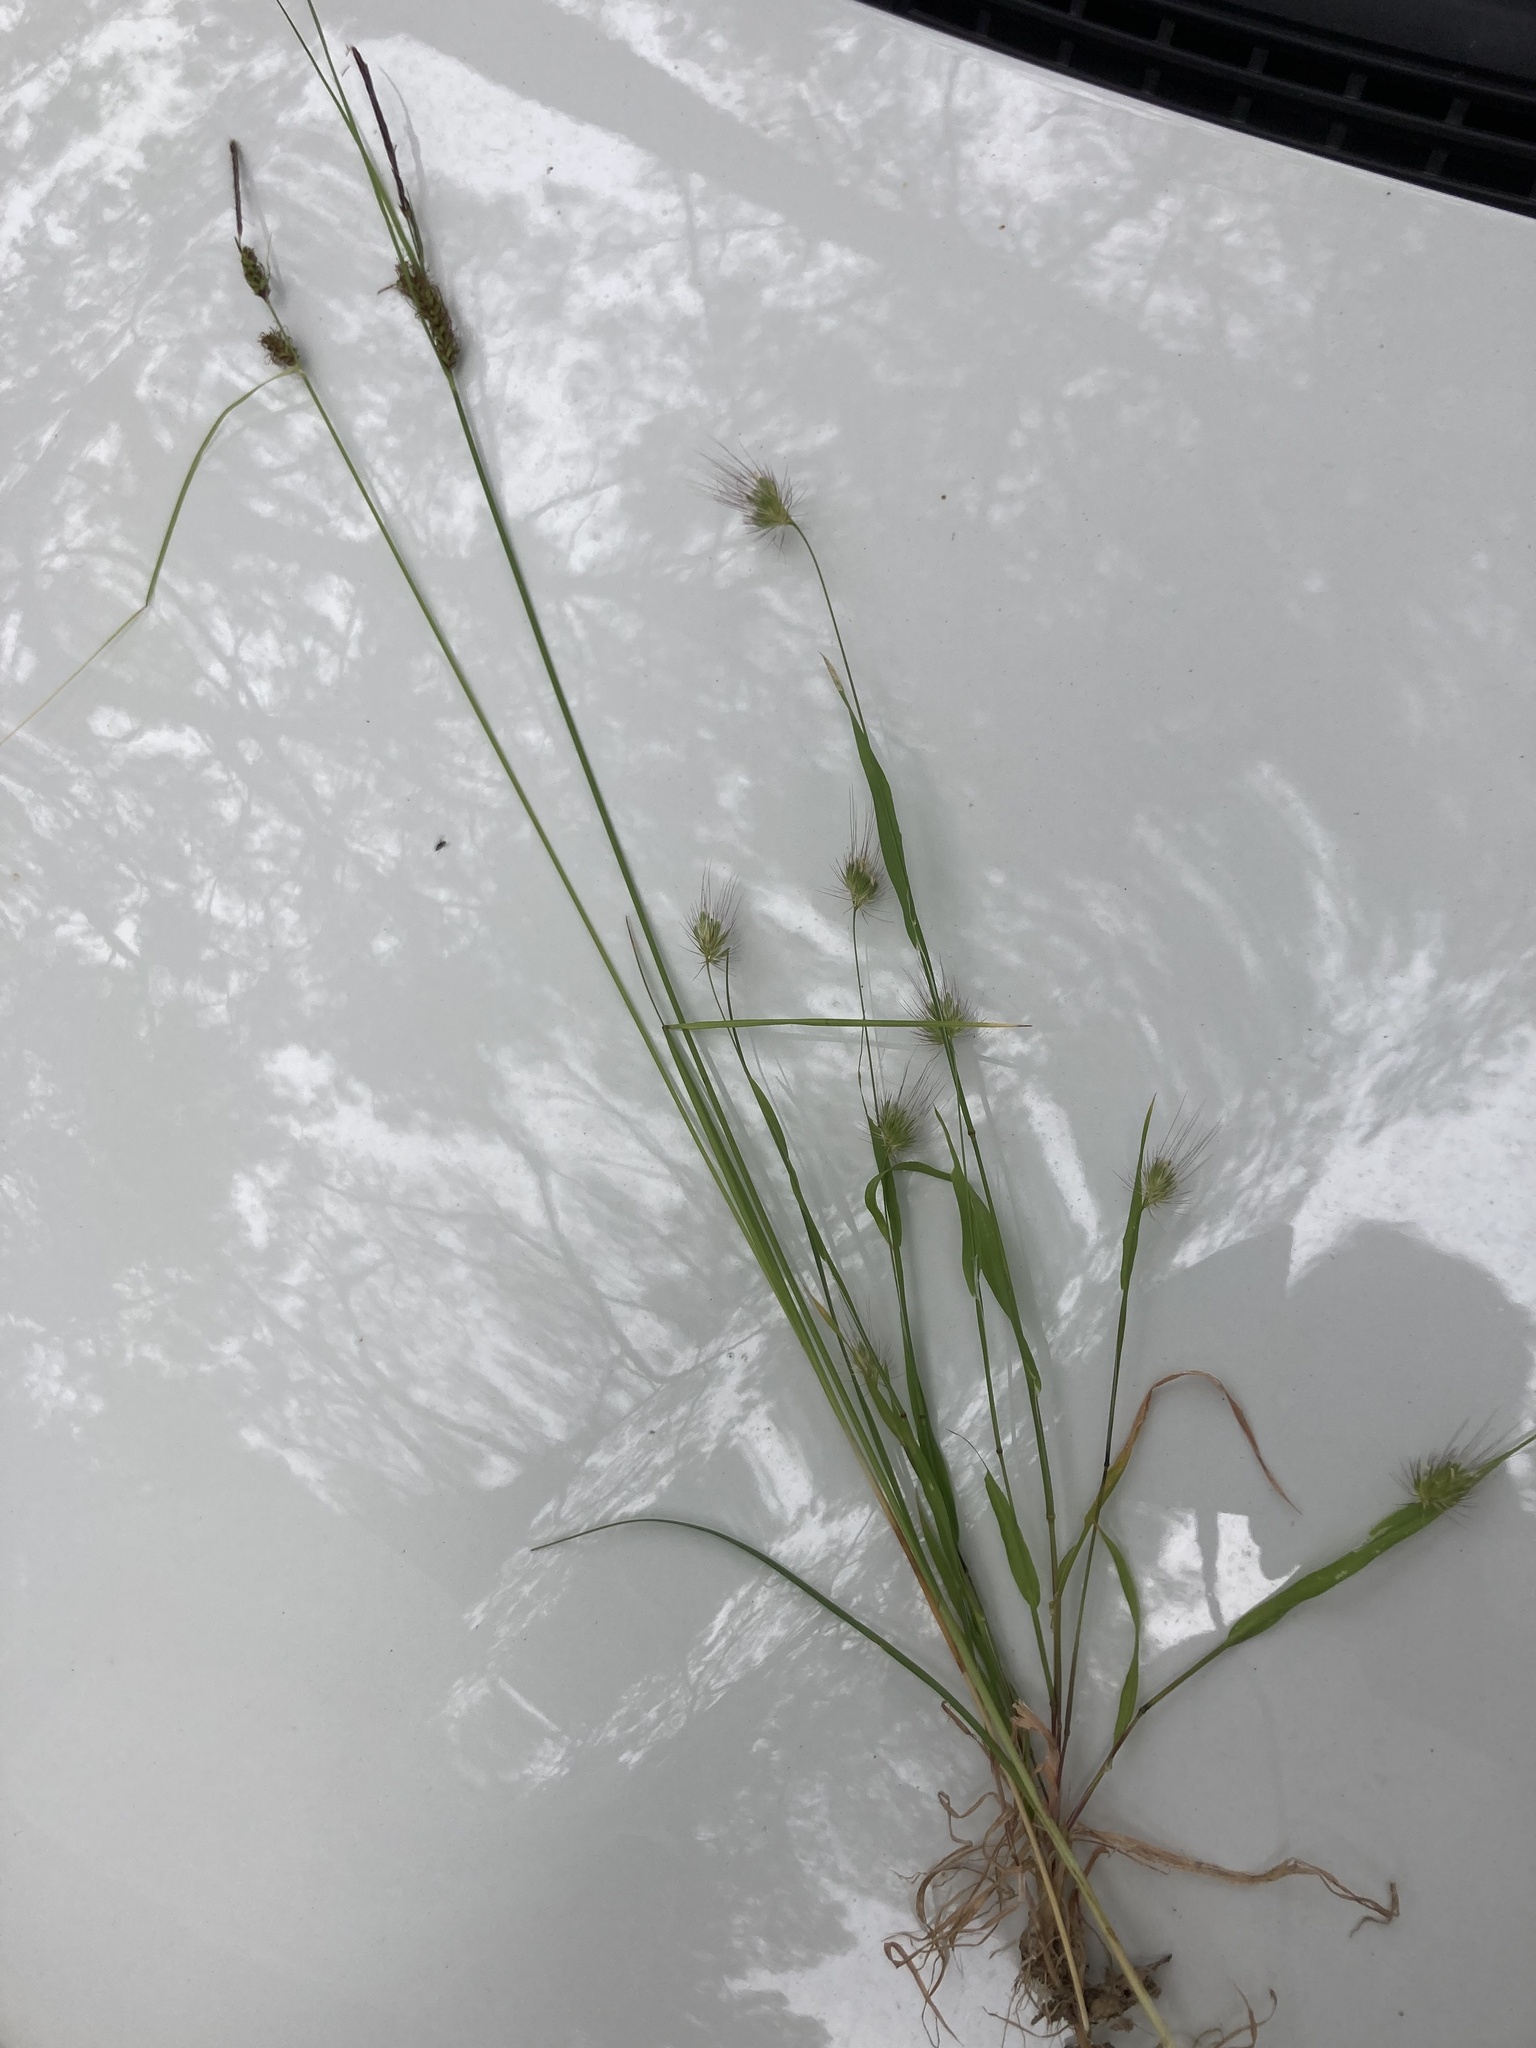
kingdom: Plantae
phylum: Tracheophyta
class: Liliopsida
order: Poales
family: Poaceae
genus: Cynosurus
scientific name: Cynosurus echinatus
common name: Rough dog's-tail
